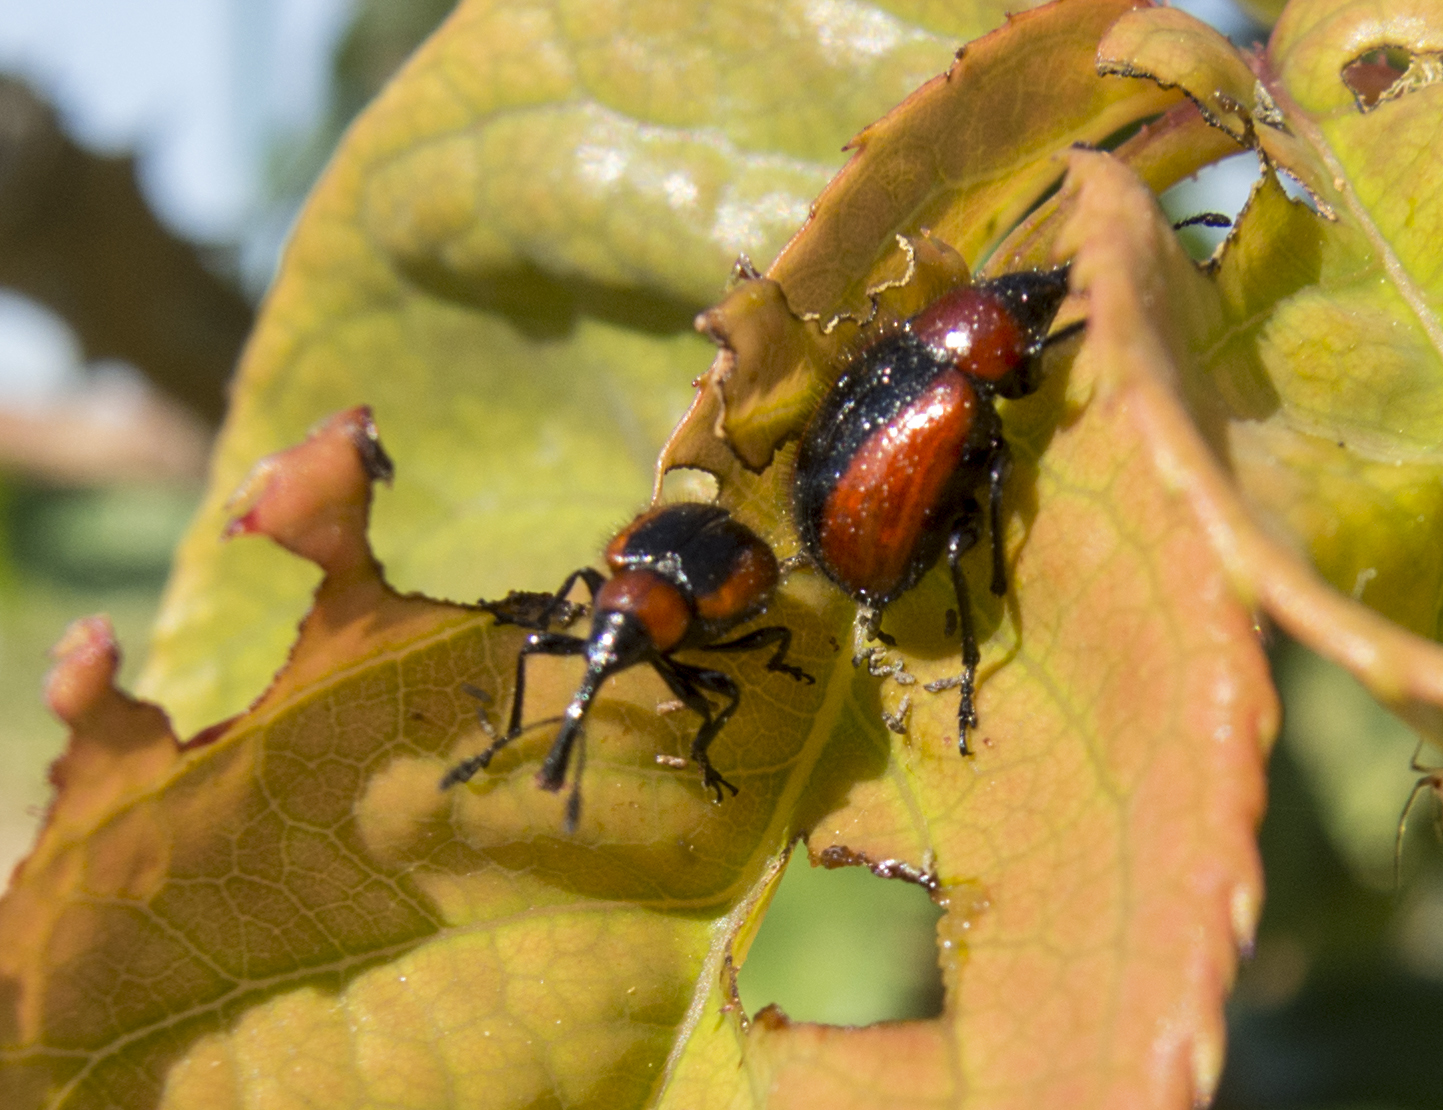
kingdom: Animalia
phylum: Arthropoda
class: Insecta
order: Coleoptera
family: Attelabidae
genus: Mecorhis
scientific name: Mecorhis ungarica
